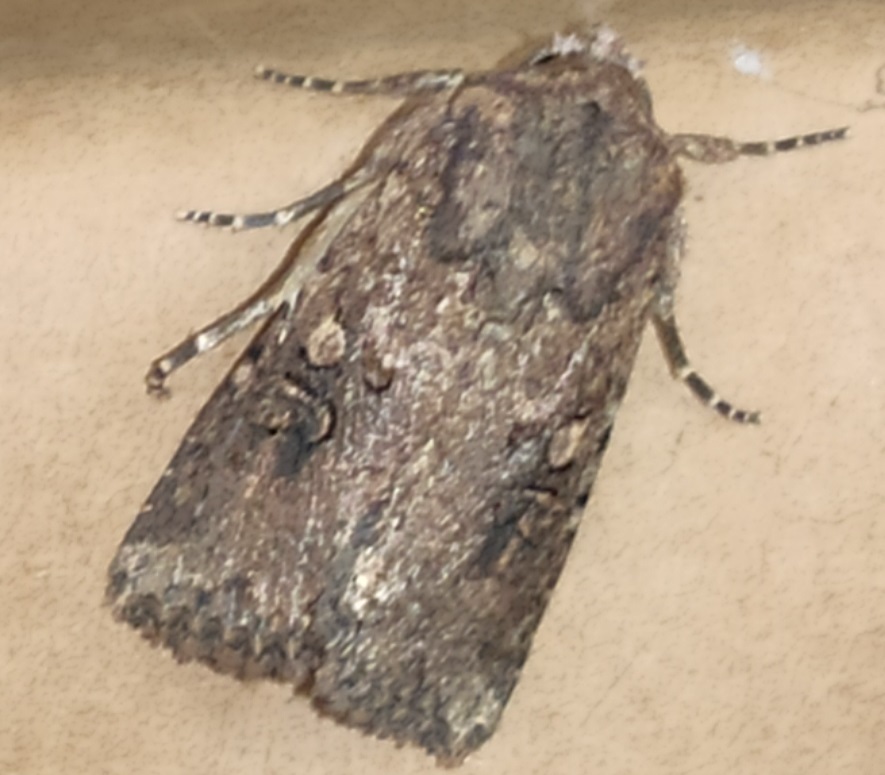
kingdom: Animalia
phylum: Arthropoda
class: Insecta
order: Lepidoptera
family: Noctuidae
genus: Mythimna
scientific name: Mythimna languida
